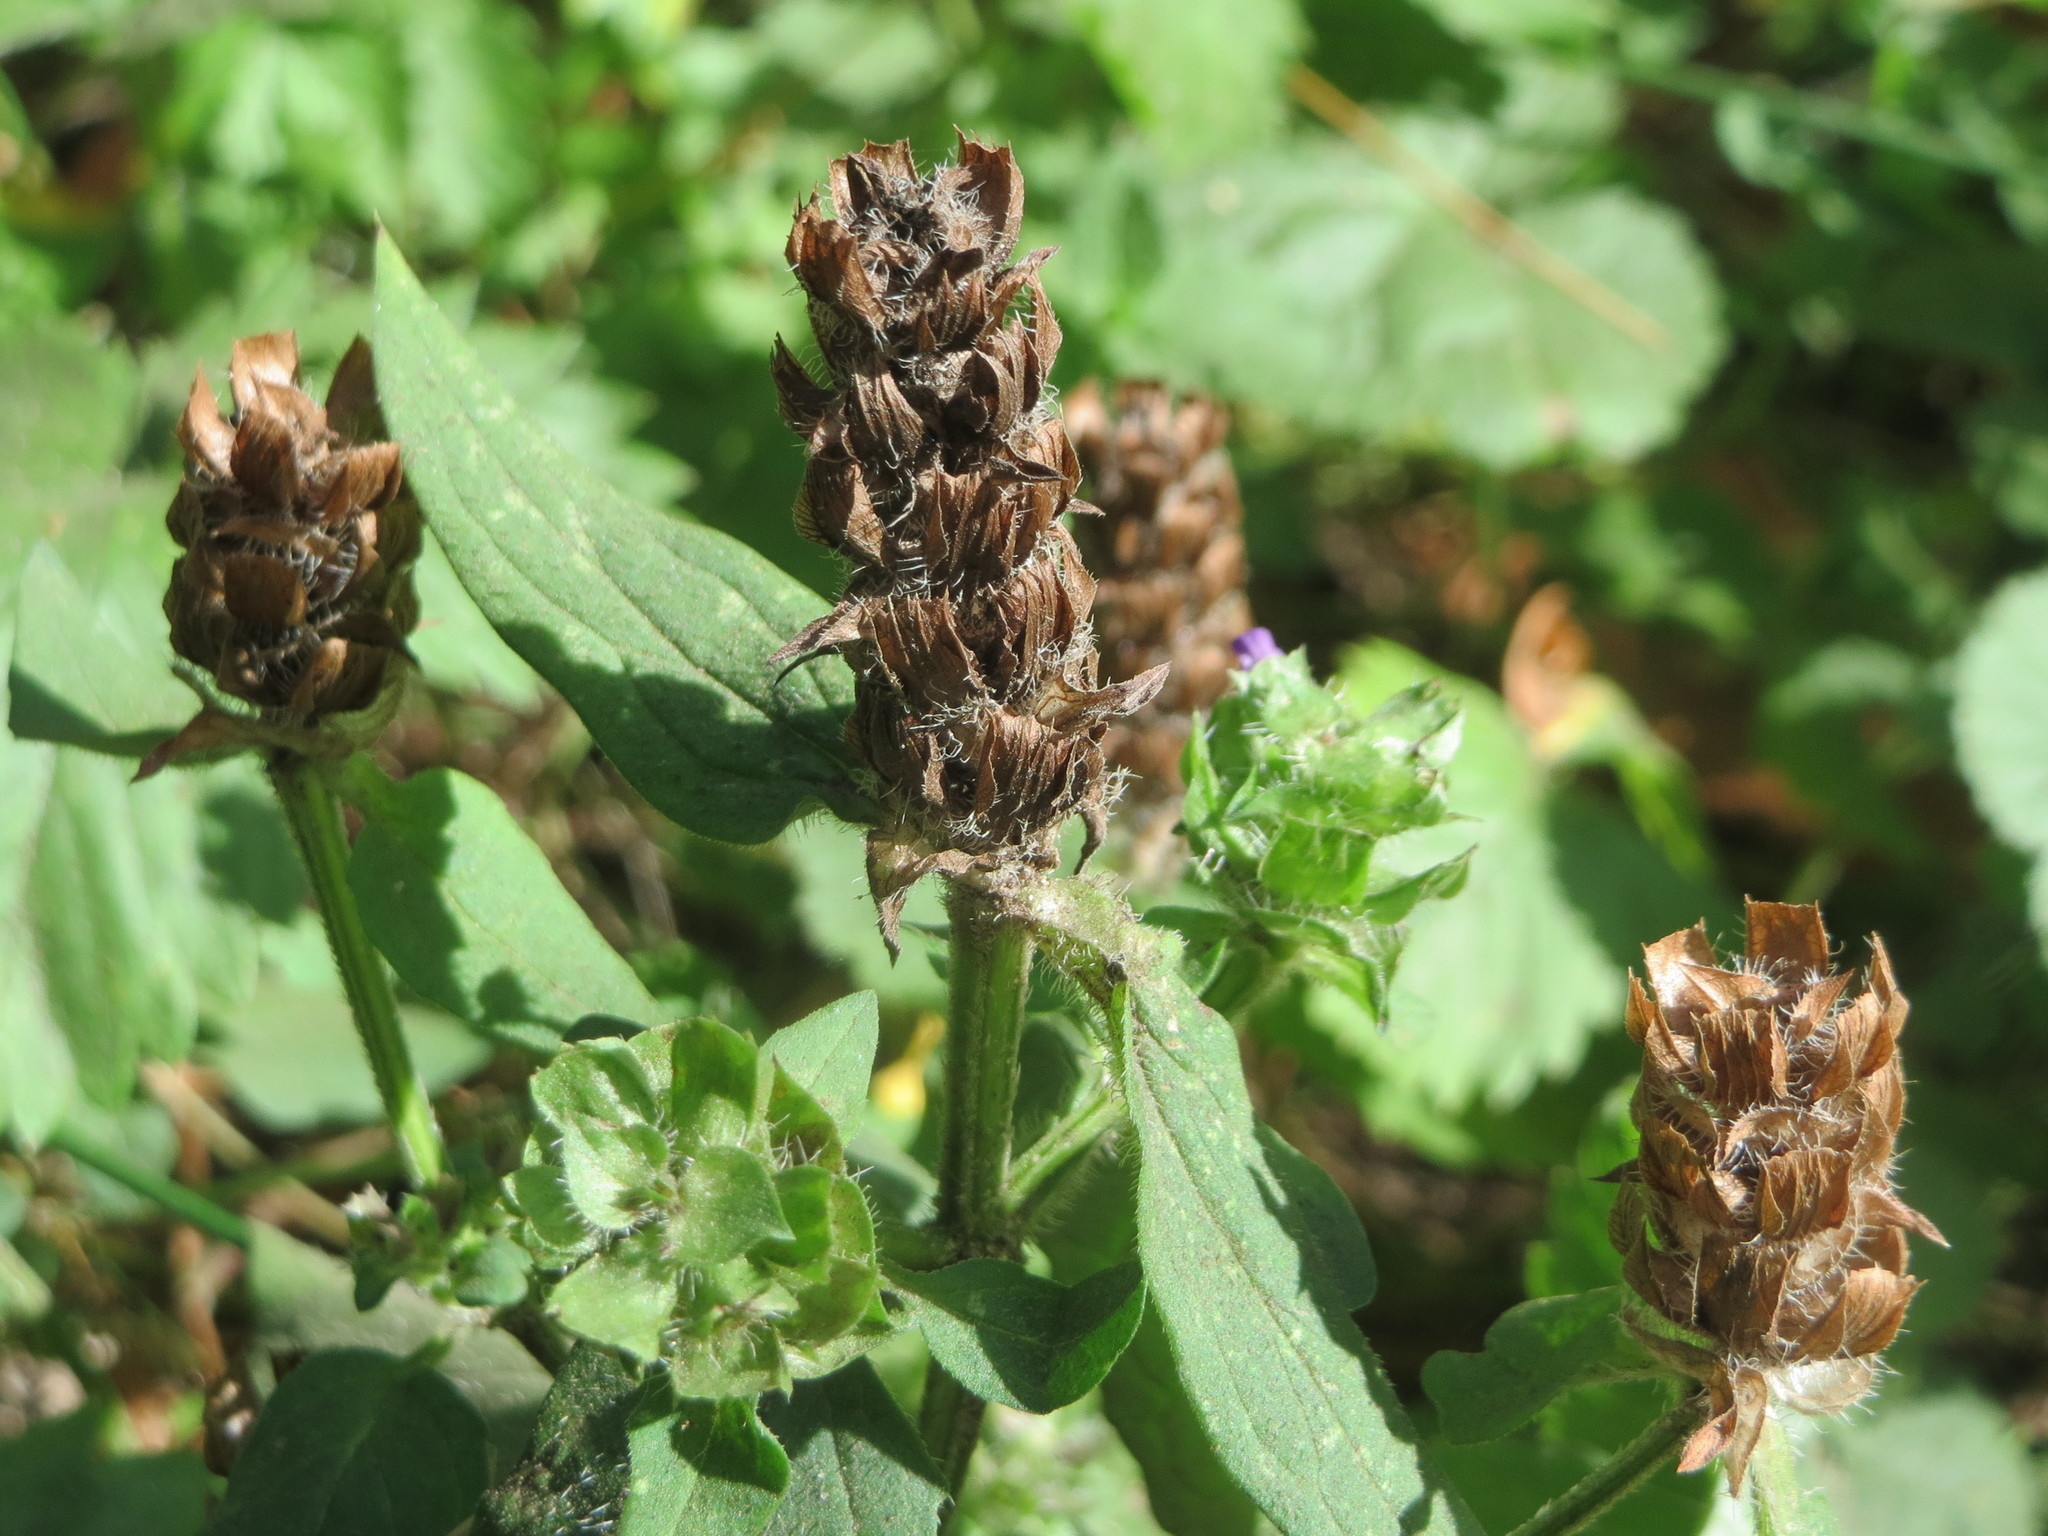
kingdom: Plantae
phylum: Tracheophyta
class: Magnoliopsida
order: Lamiales
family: Lamiaceae
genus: Prunella
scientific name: Prunella vulgaris
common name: Heal-all
